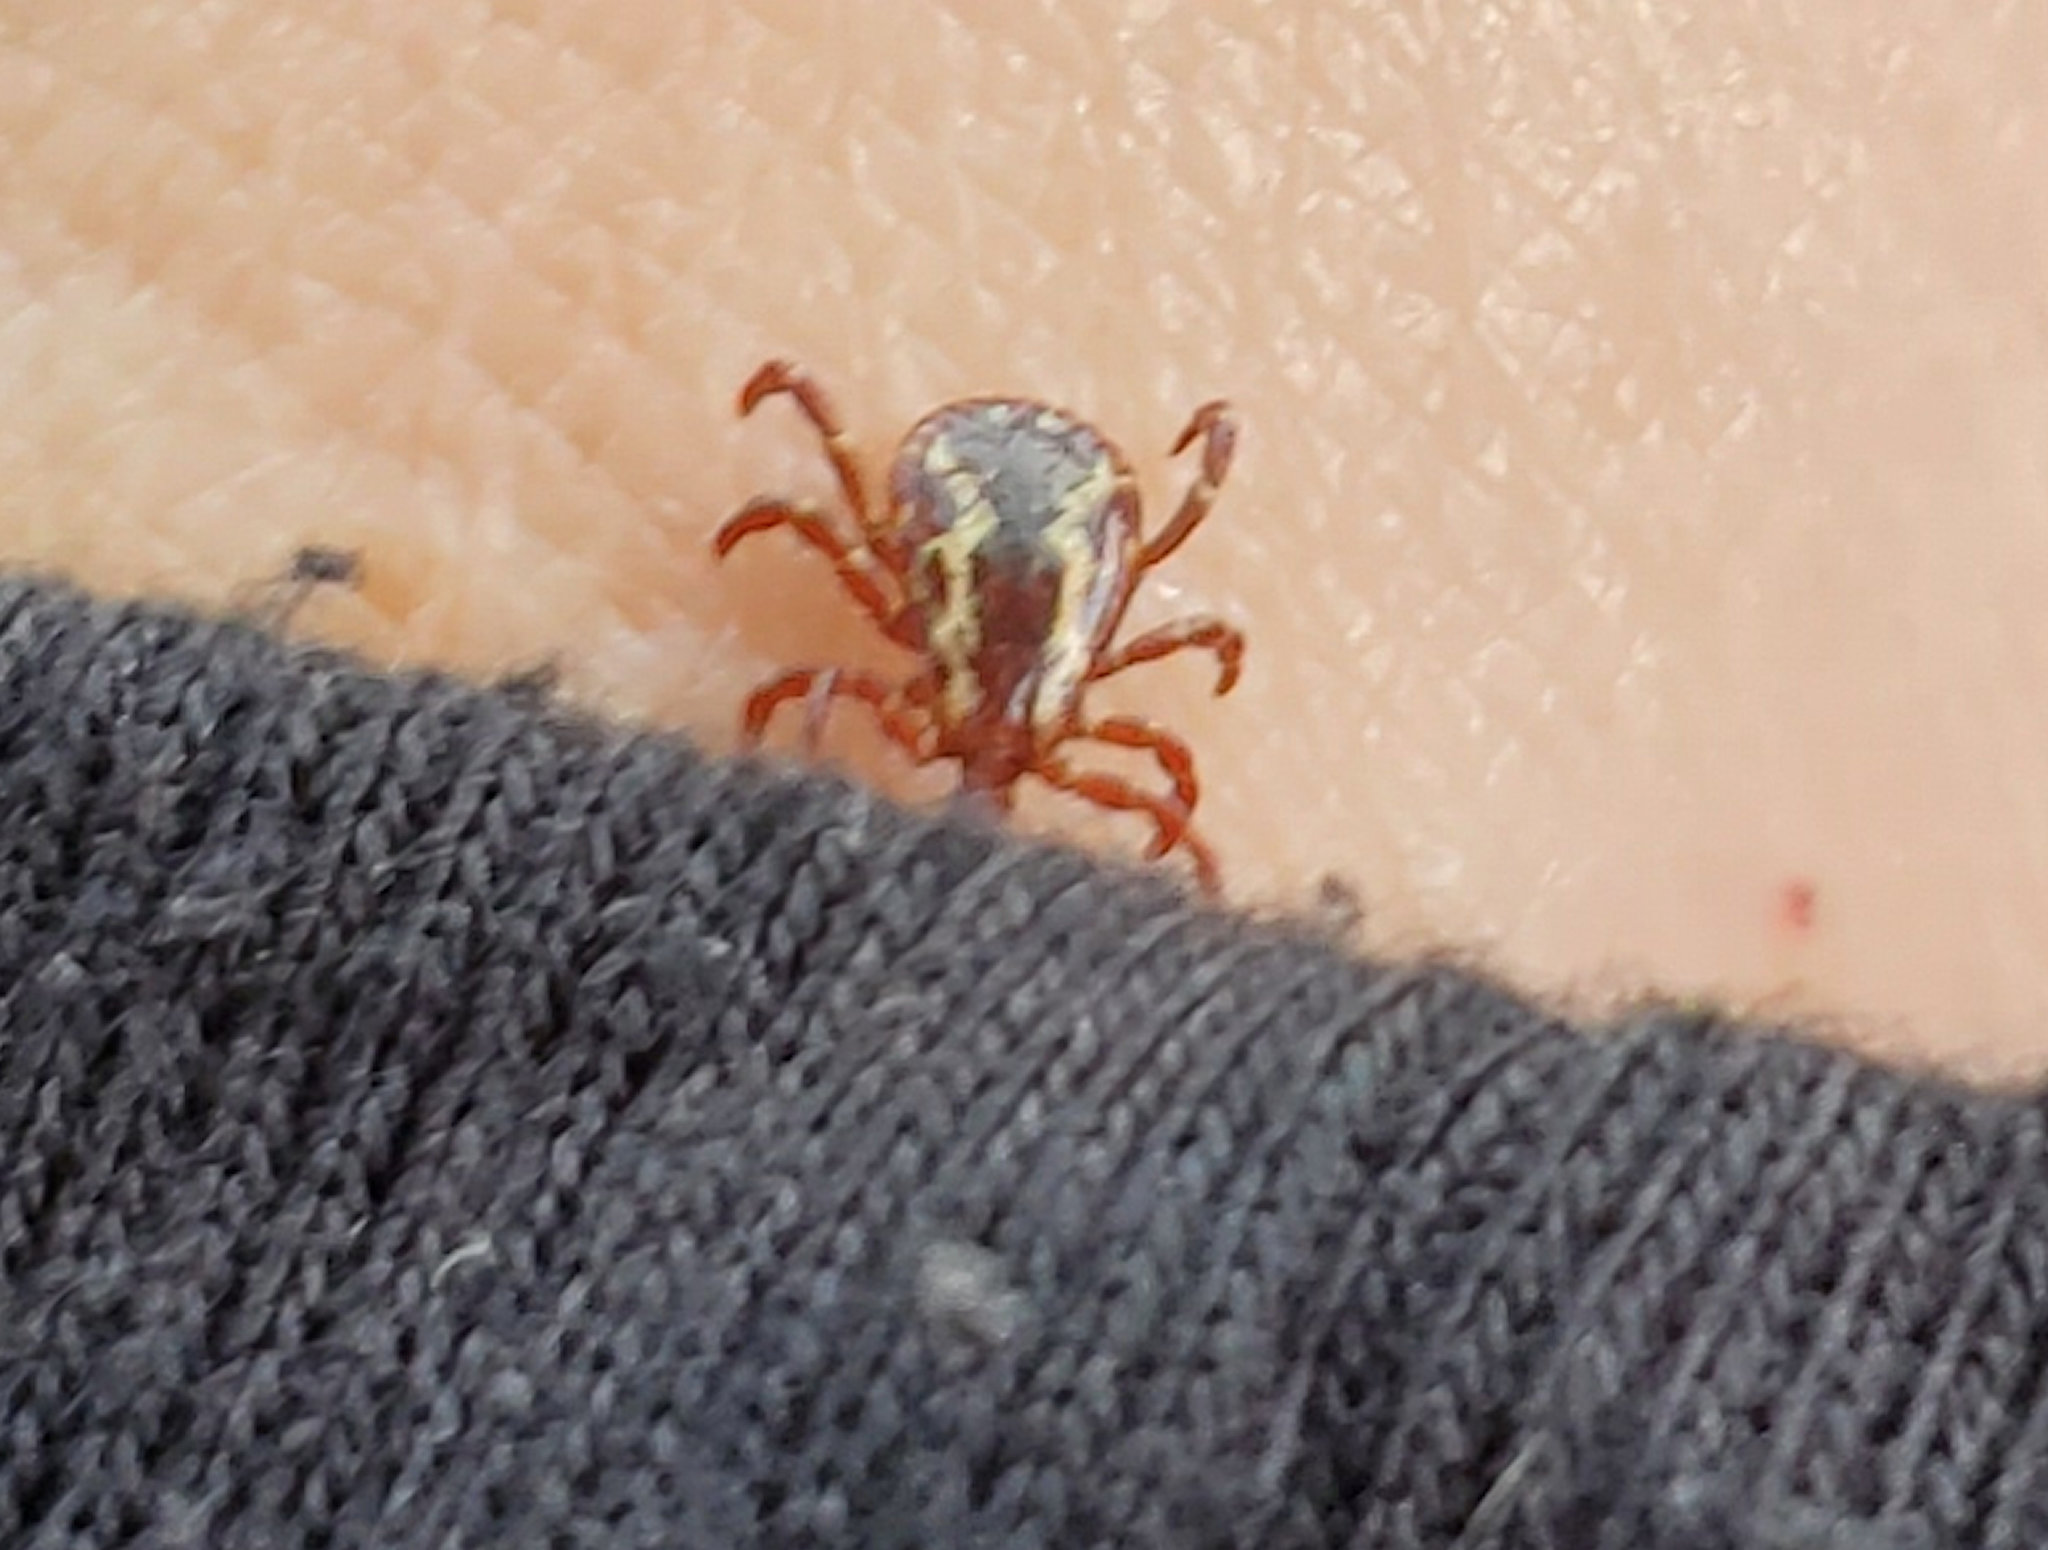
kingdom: Animalia
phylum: Arthropoda
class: Arachnida
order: Ixodida
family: Ixodidae
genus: Dermacentor
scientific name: Dermacentor variabilis
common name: American dog tick
